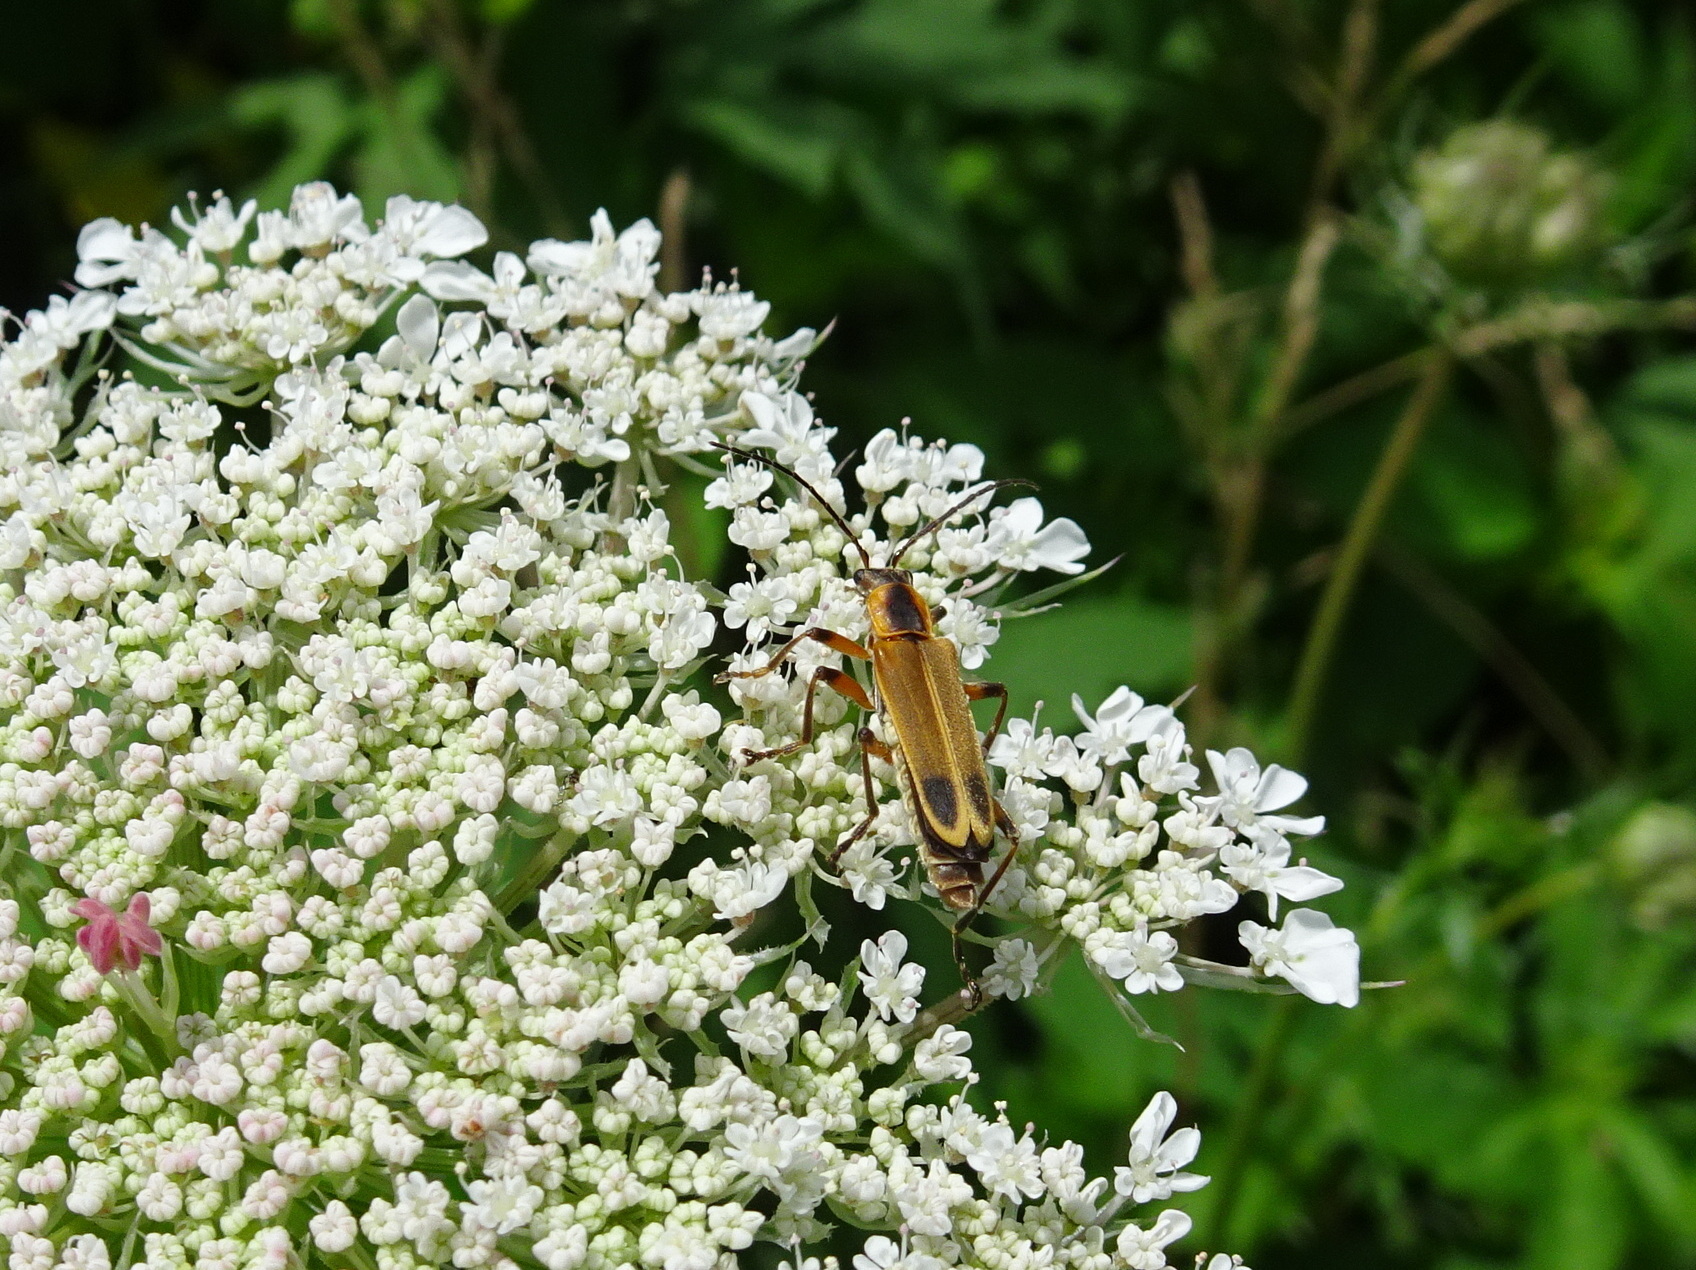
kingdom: Animalia
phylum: Arthropoda
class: Insecta
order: Coleoptera
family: Cantharidae
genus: Chauliognathus
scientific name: Chauliognathus marginatus
